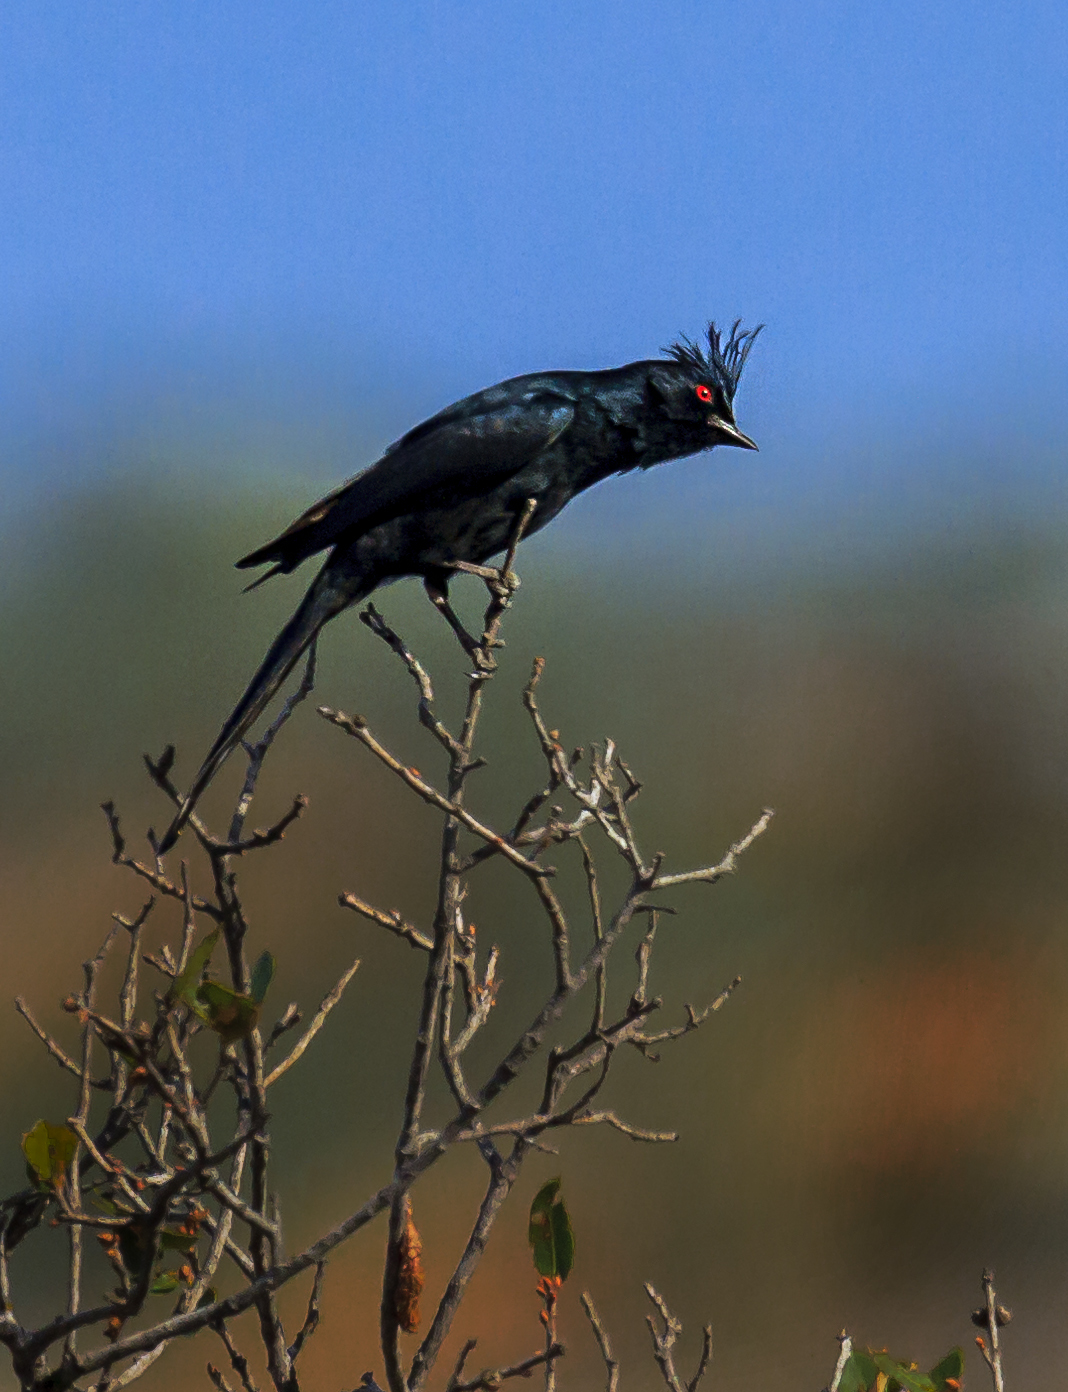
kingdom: Animalia
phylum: Chordata
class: Aves
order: Passeriformes
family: Ptilogonatidae
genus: Phainopepla
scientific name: Phainopepla nitens
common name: Phainopepla
